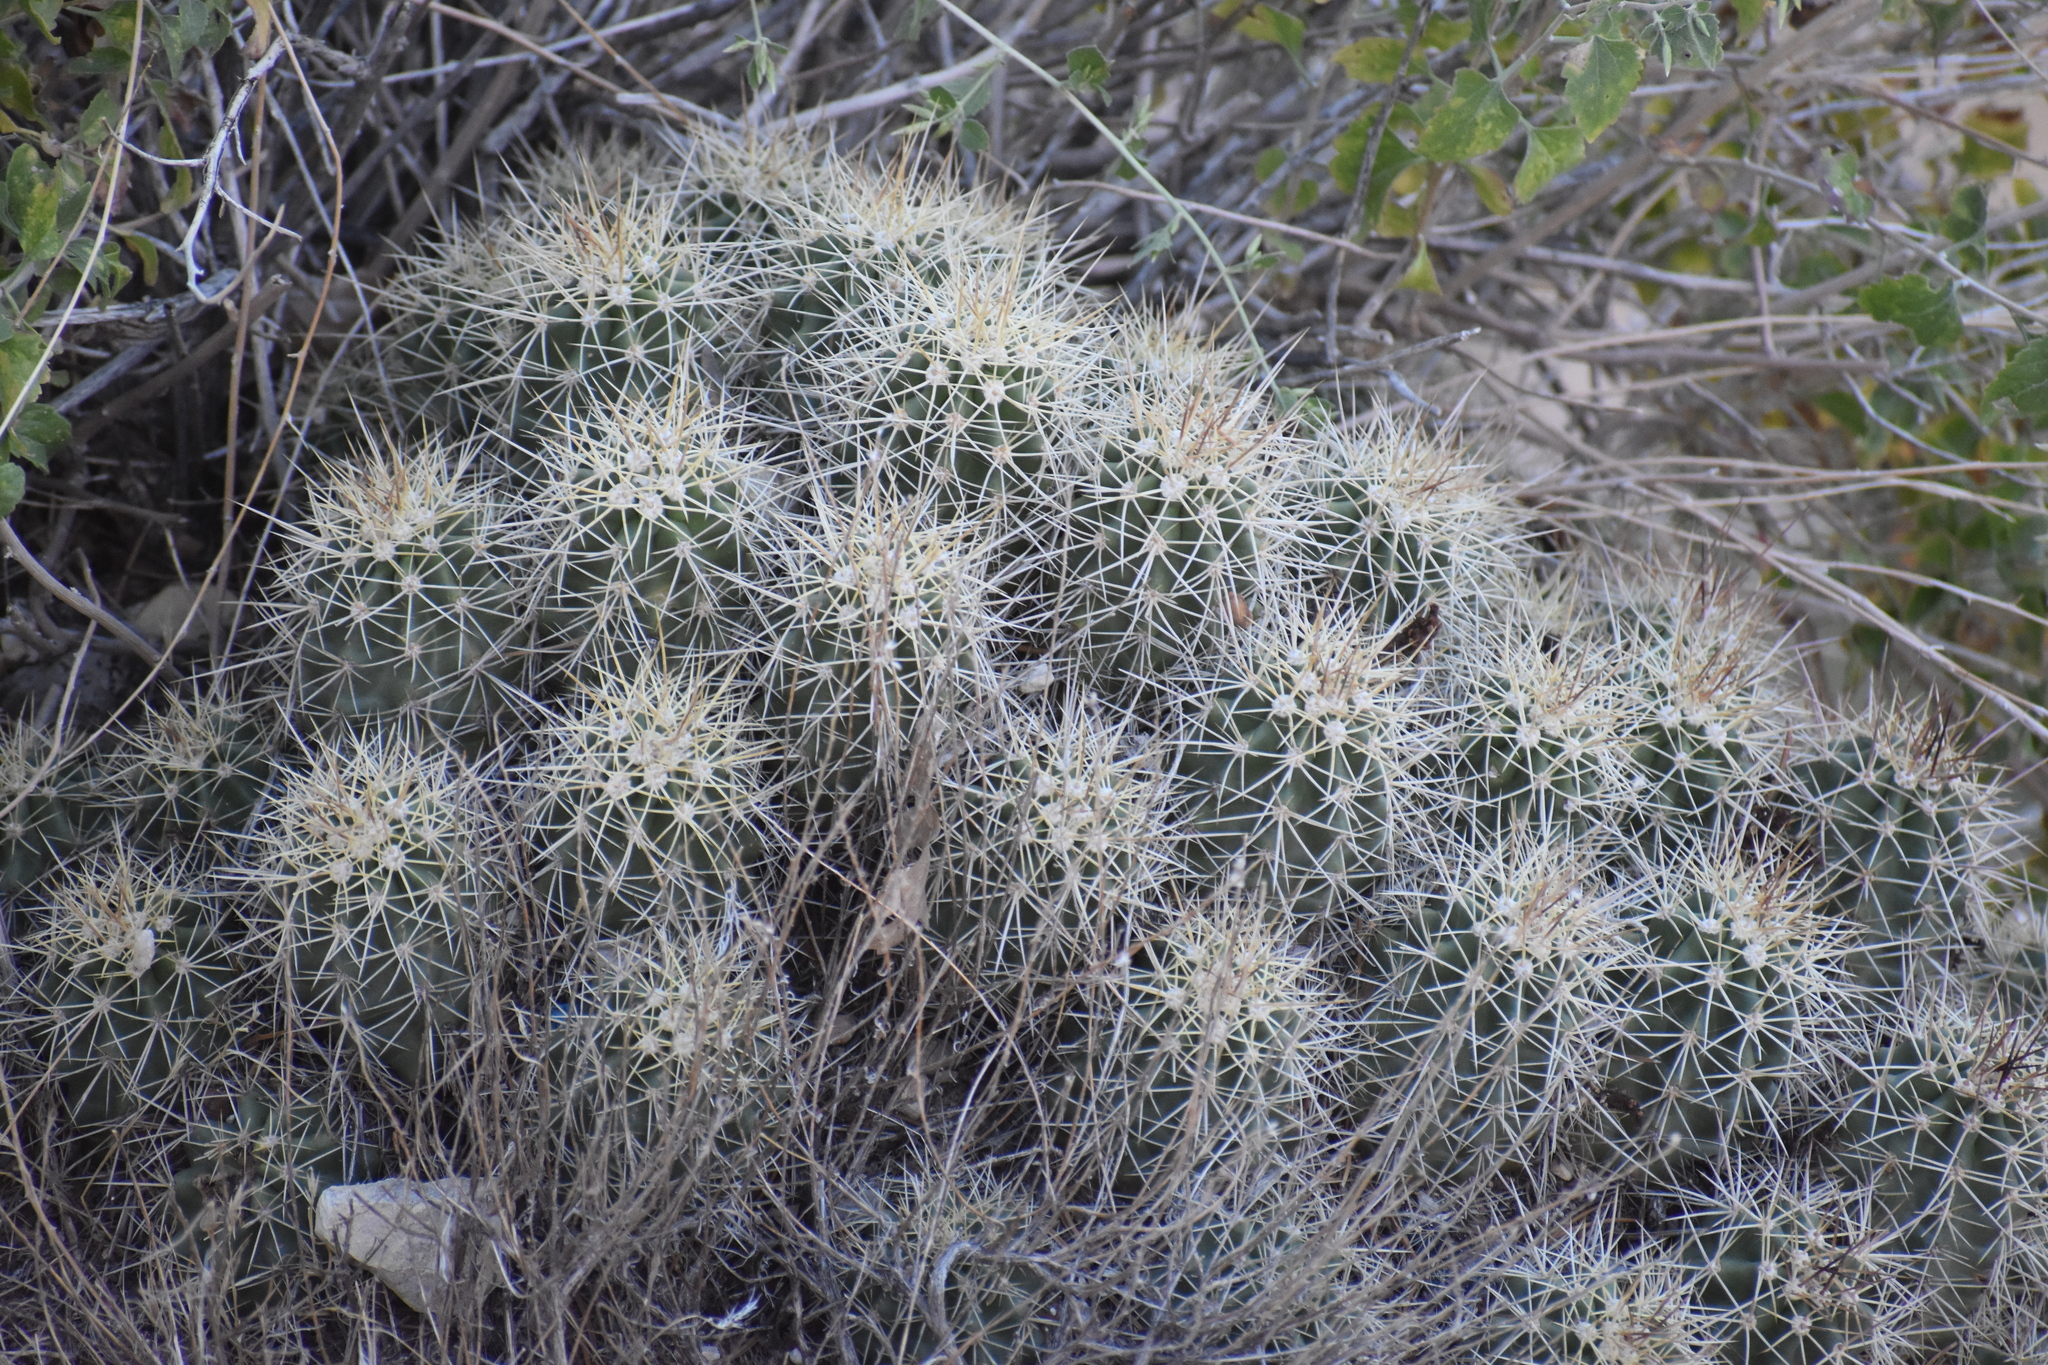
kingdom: Plantae
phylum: Tracheophyta
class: Magnoliopsida
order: Caryophyllales
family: Cactaceae
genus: Echinocereus
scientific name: Echinocereus triglochidiatus
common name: Claretcup hedgehog
